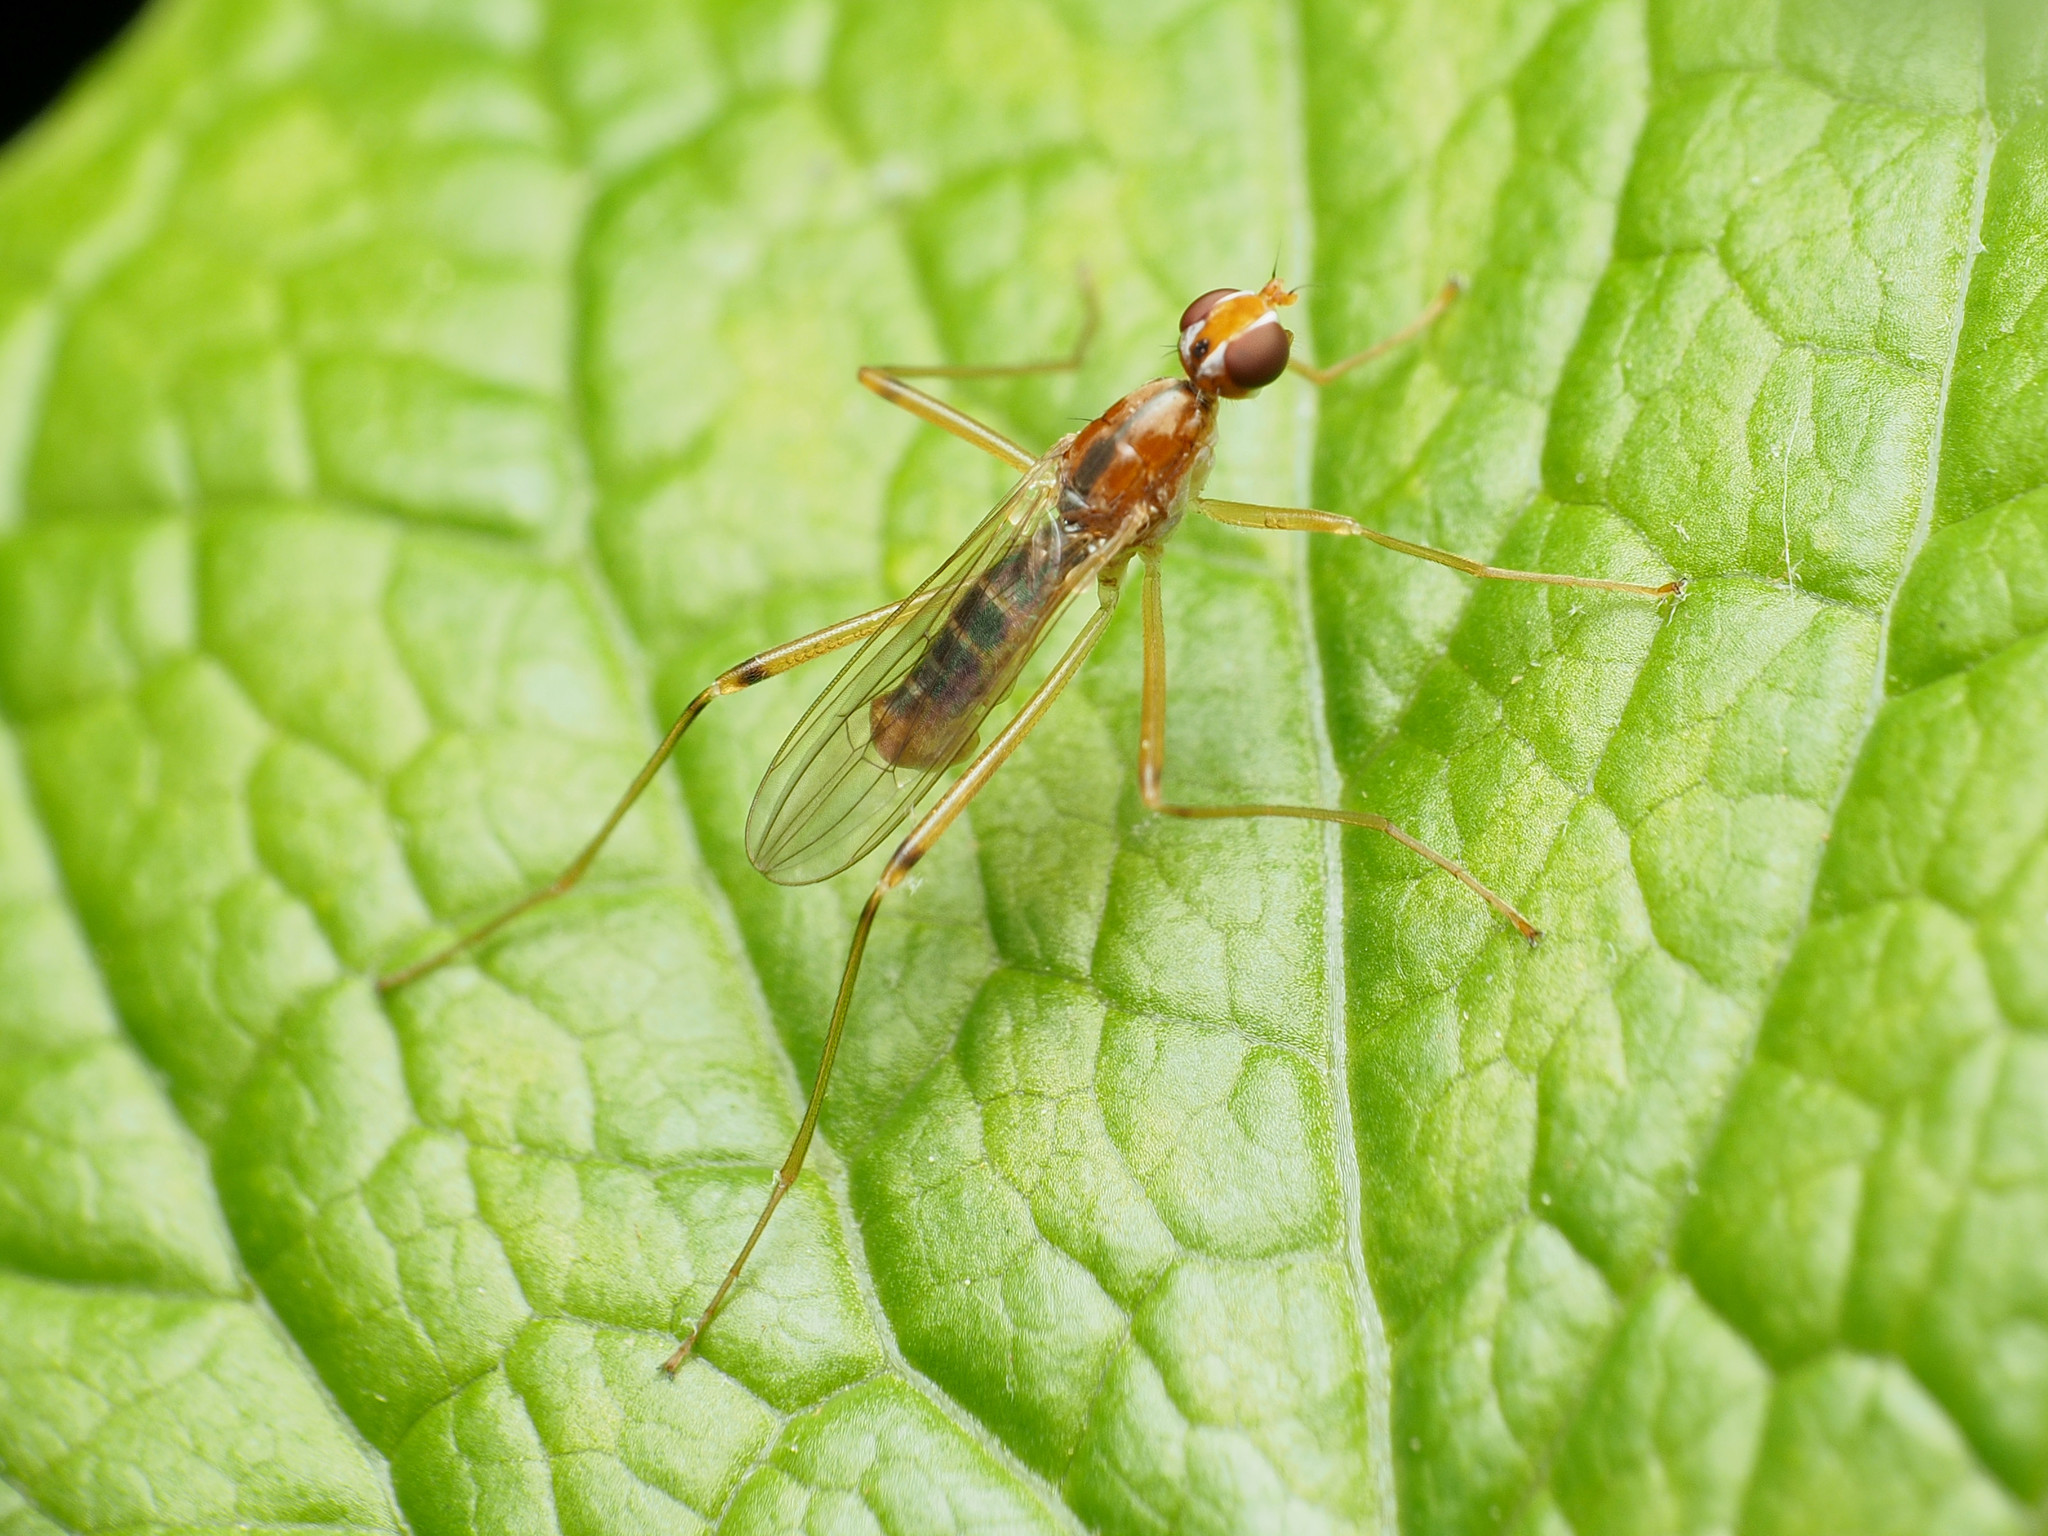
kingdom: Animalia
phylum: Arthropoda
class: Insecta
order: Diptera
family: Micropezidae
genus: Compsobata
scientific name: Compsobata univitta
